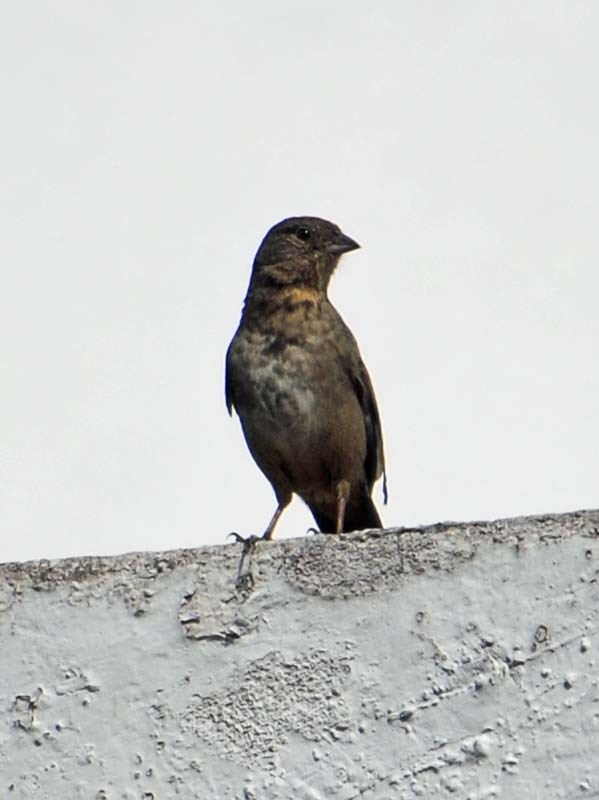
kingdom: Animalia
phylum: Chordata
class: Aves
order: Passeriformes
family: Passerellidae
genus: Melozone
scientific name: Melozone fusca
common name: Canyon towhee
